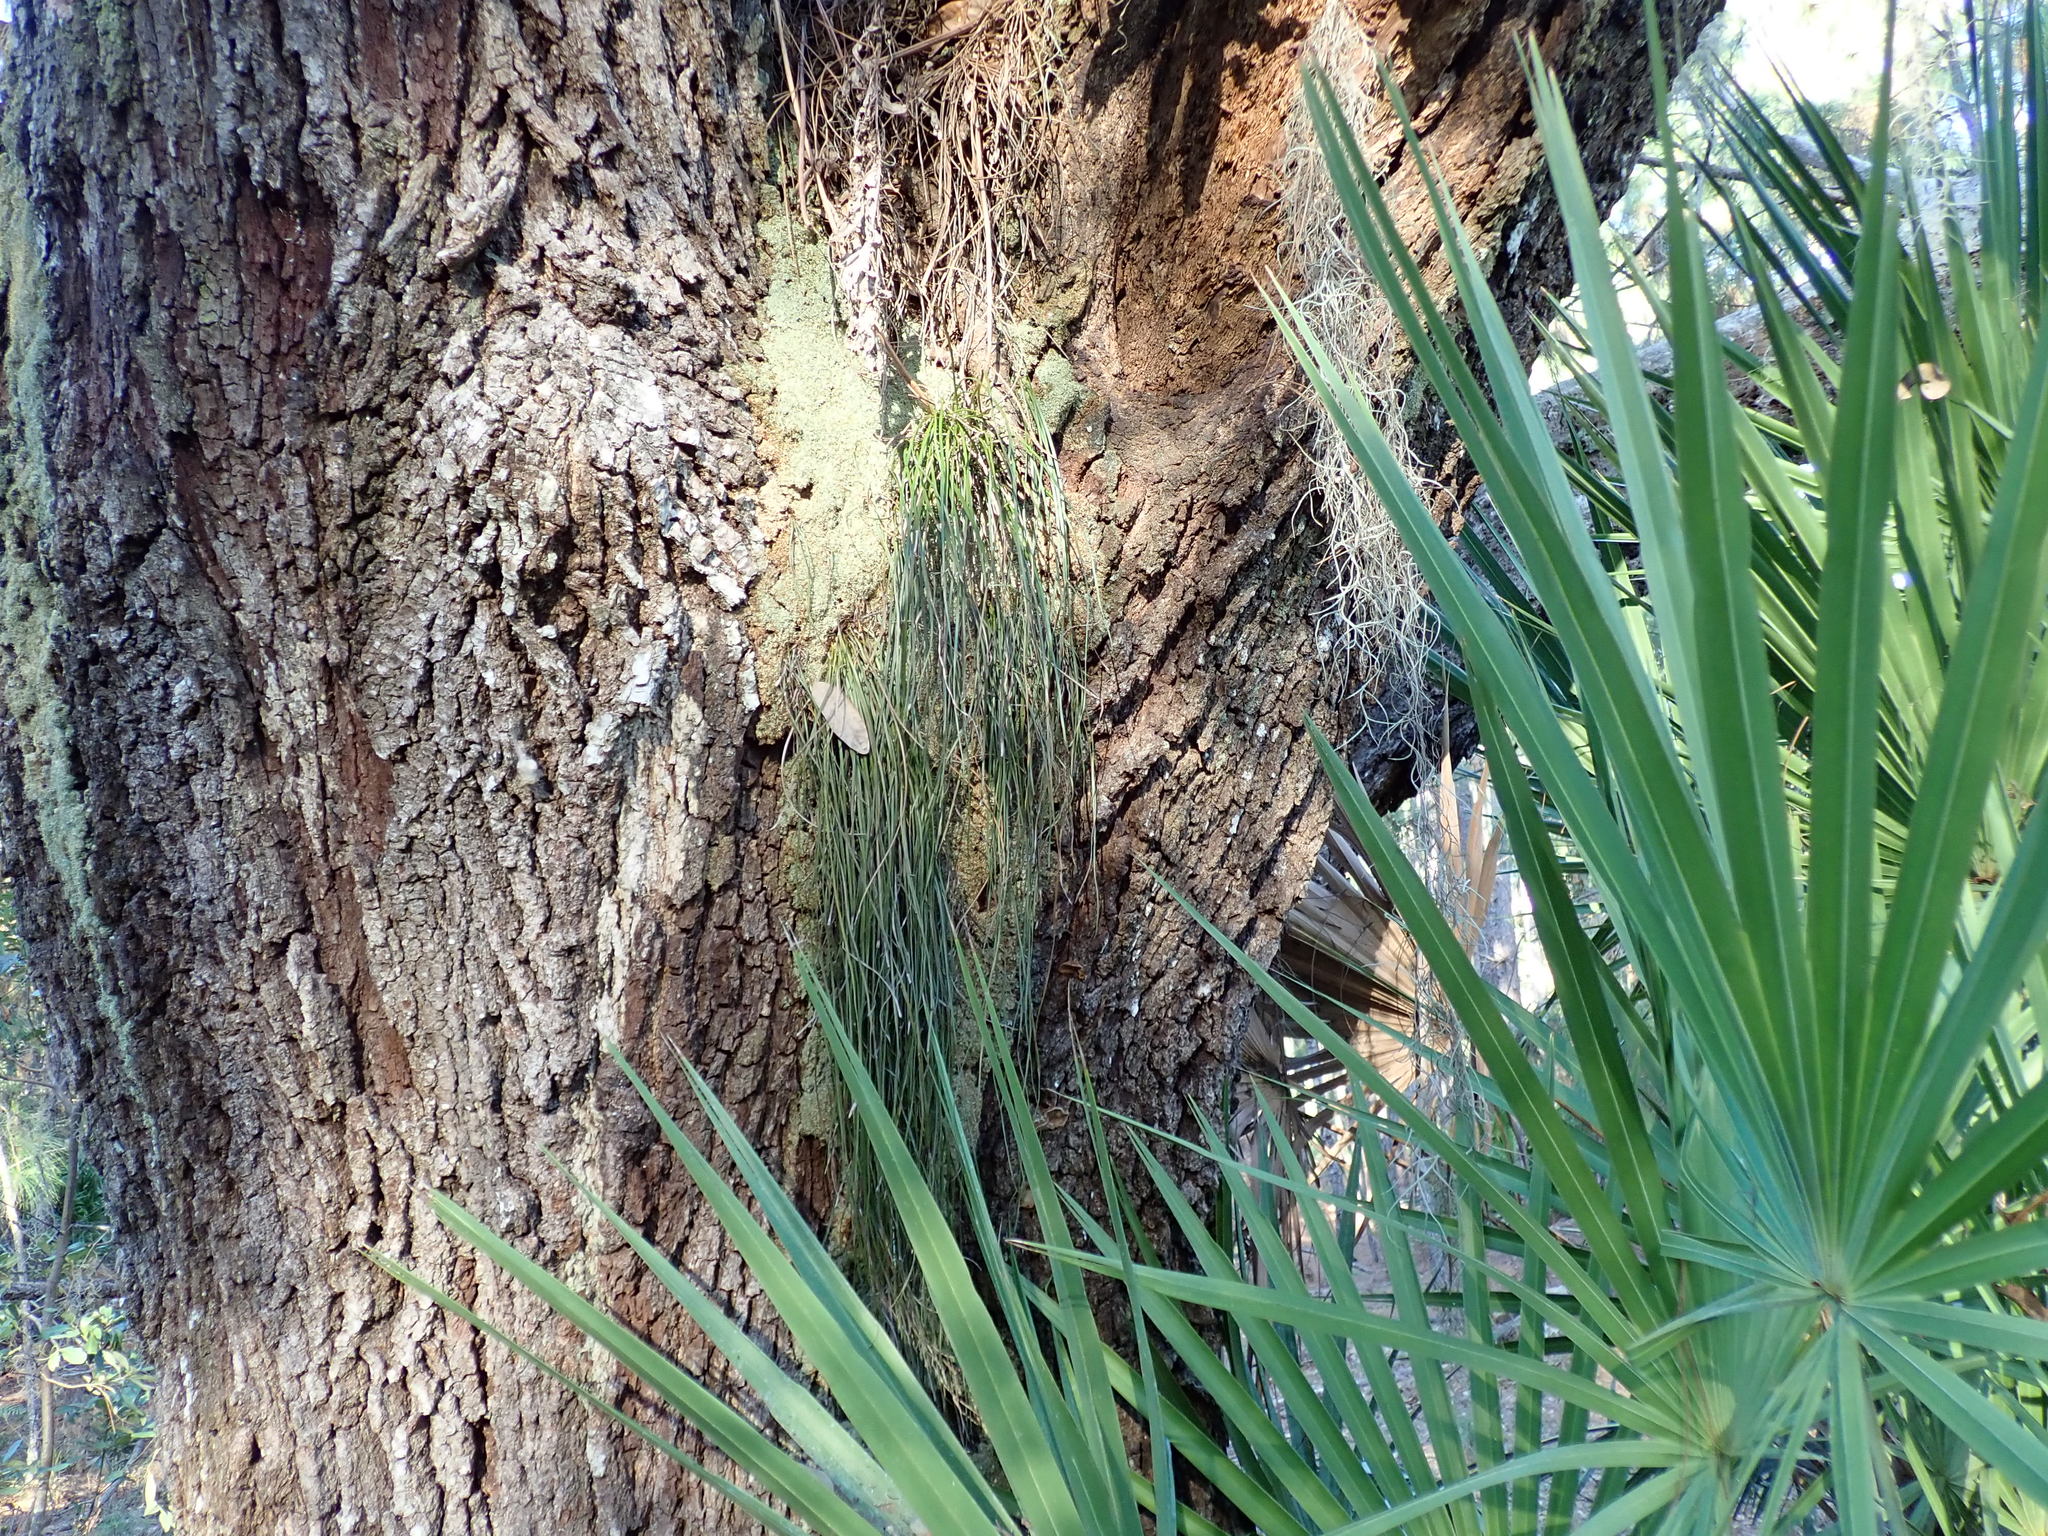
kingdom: Plantae
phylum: Tracheophyta
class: Polypodiopsida
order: Polypodiales
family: Pteridaceae
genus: Vittaria
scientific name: Vittaria lineata
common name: Shoestring fern
